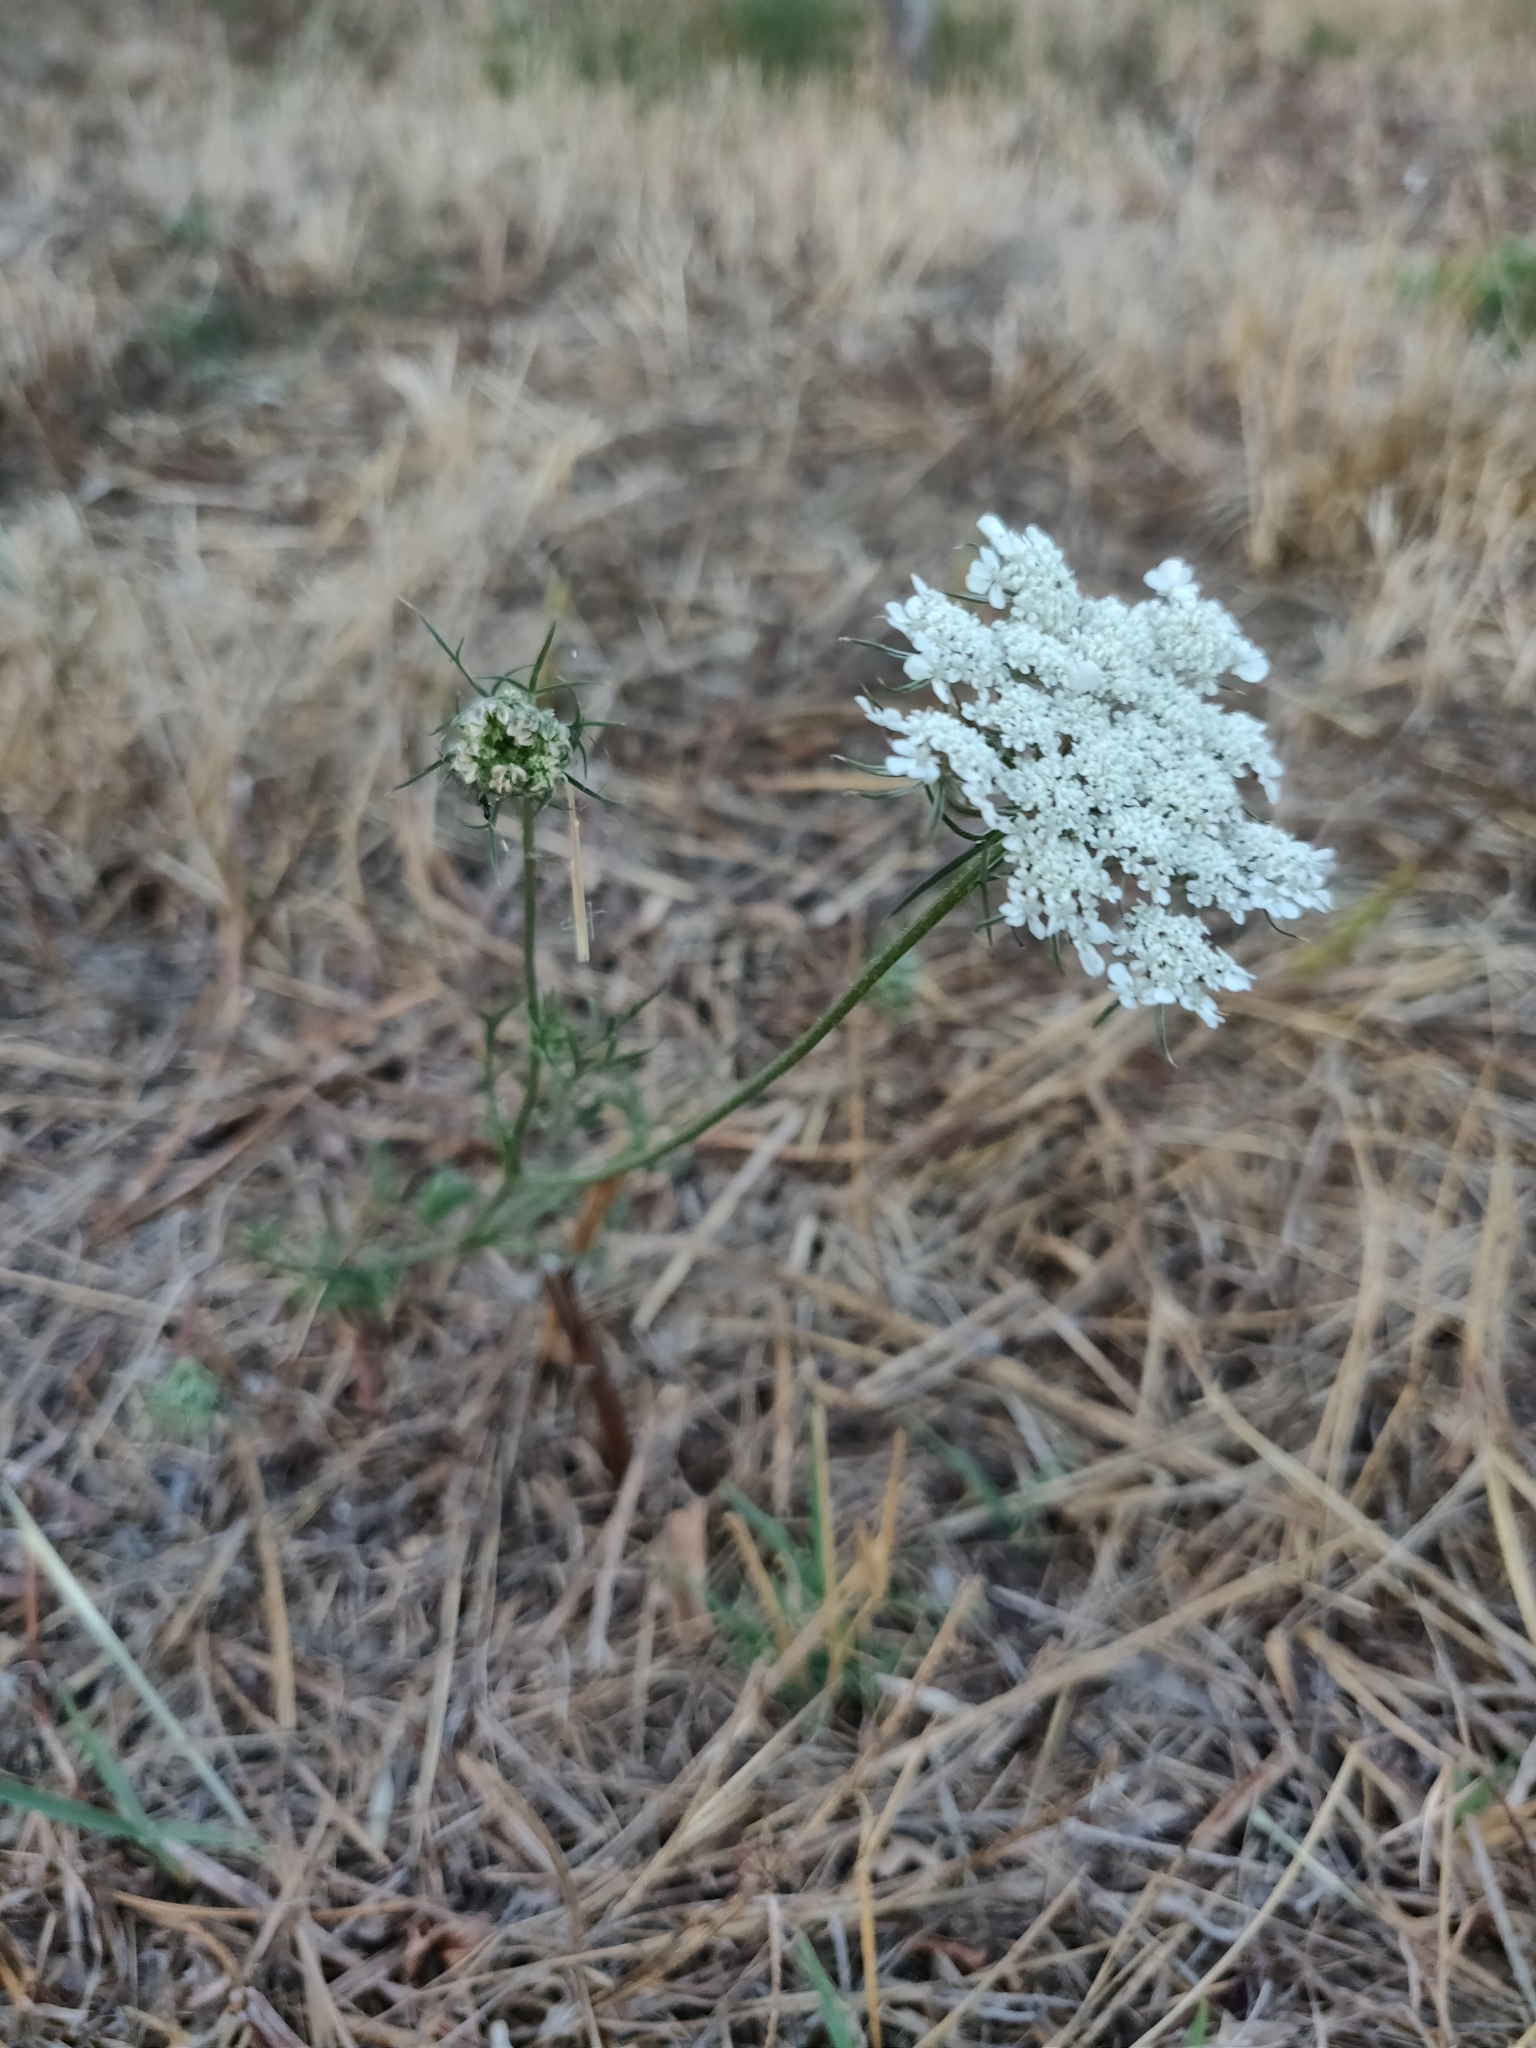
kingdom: Plantae
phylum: Tracheophyta
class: Magnoliopsida
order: Apiales
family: Apiaceae
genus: Daucus
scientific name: Daucus carota
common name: Wild carrot
